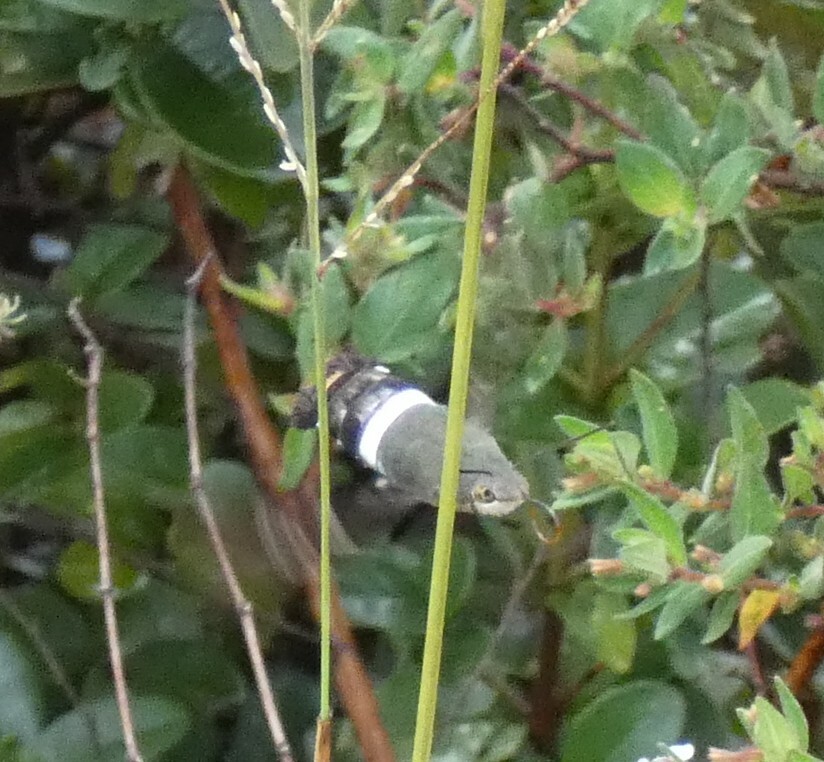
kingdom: Animalia
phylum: Arthropoda
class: Insecta
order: Lepidoptera
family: Sphingidae
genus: Aellopos
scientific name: Aellopos titan
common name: Titan sphinx
